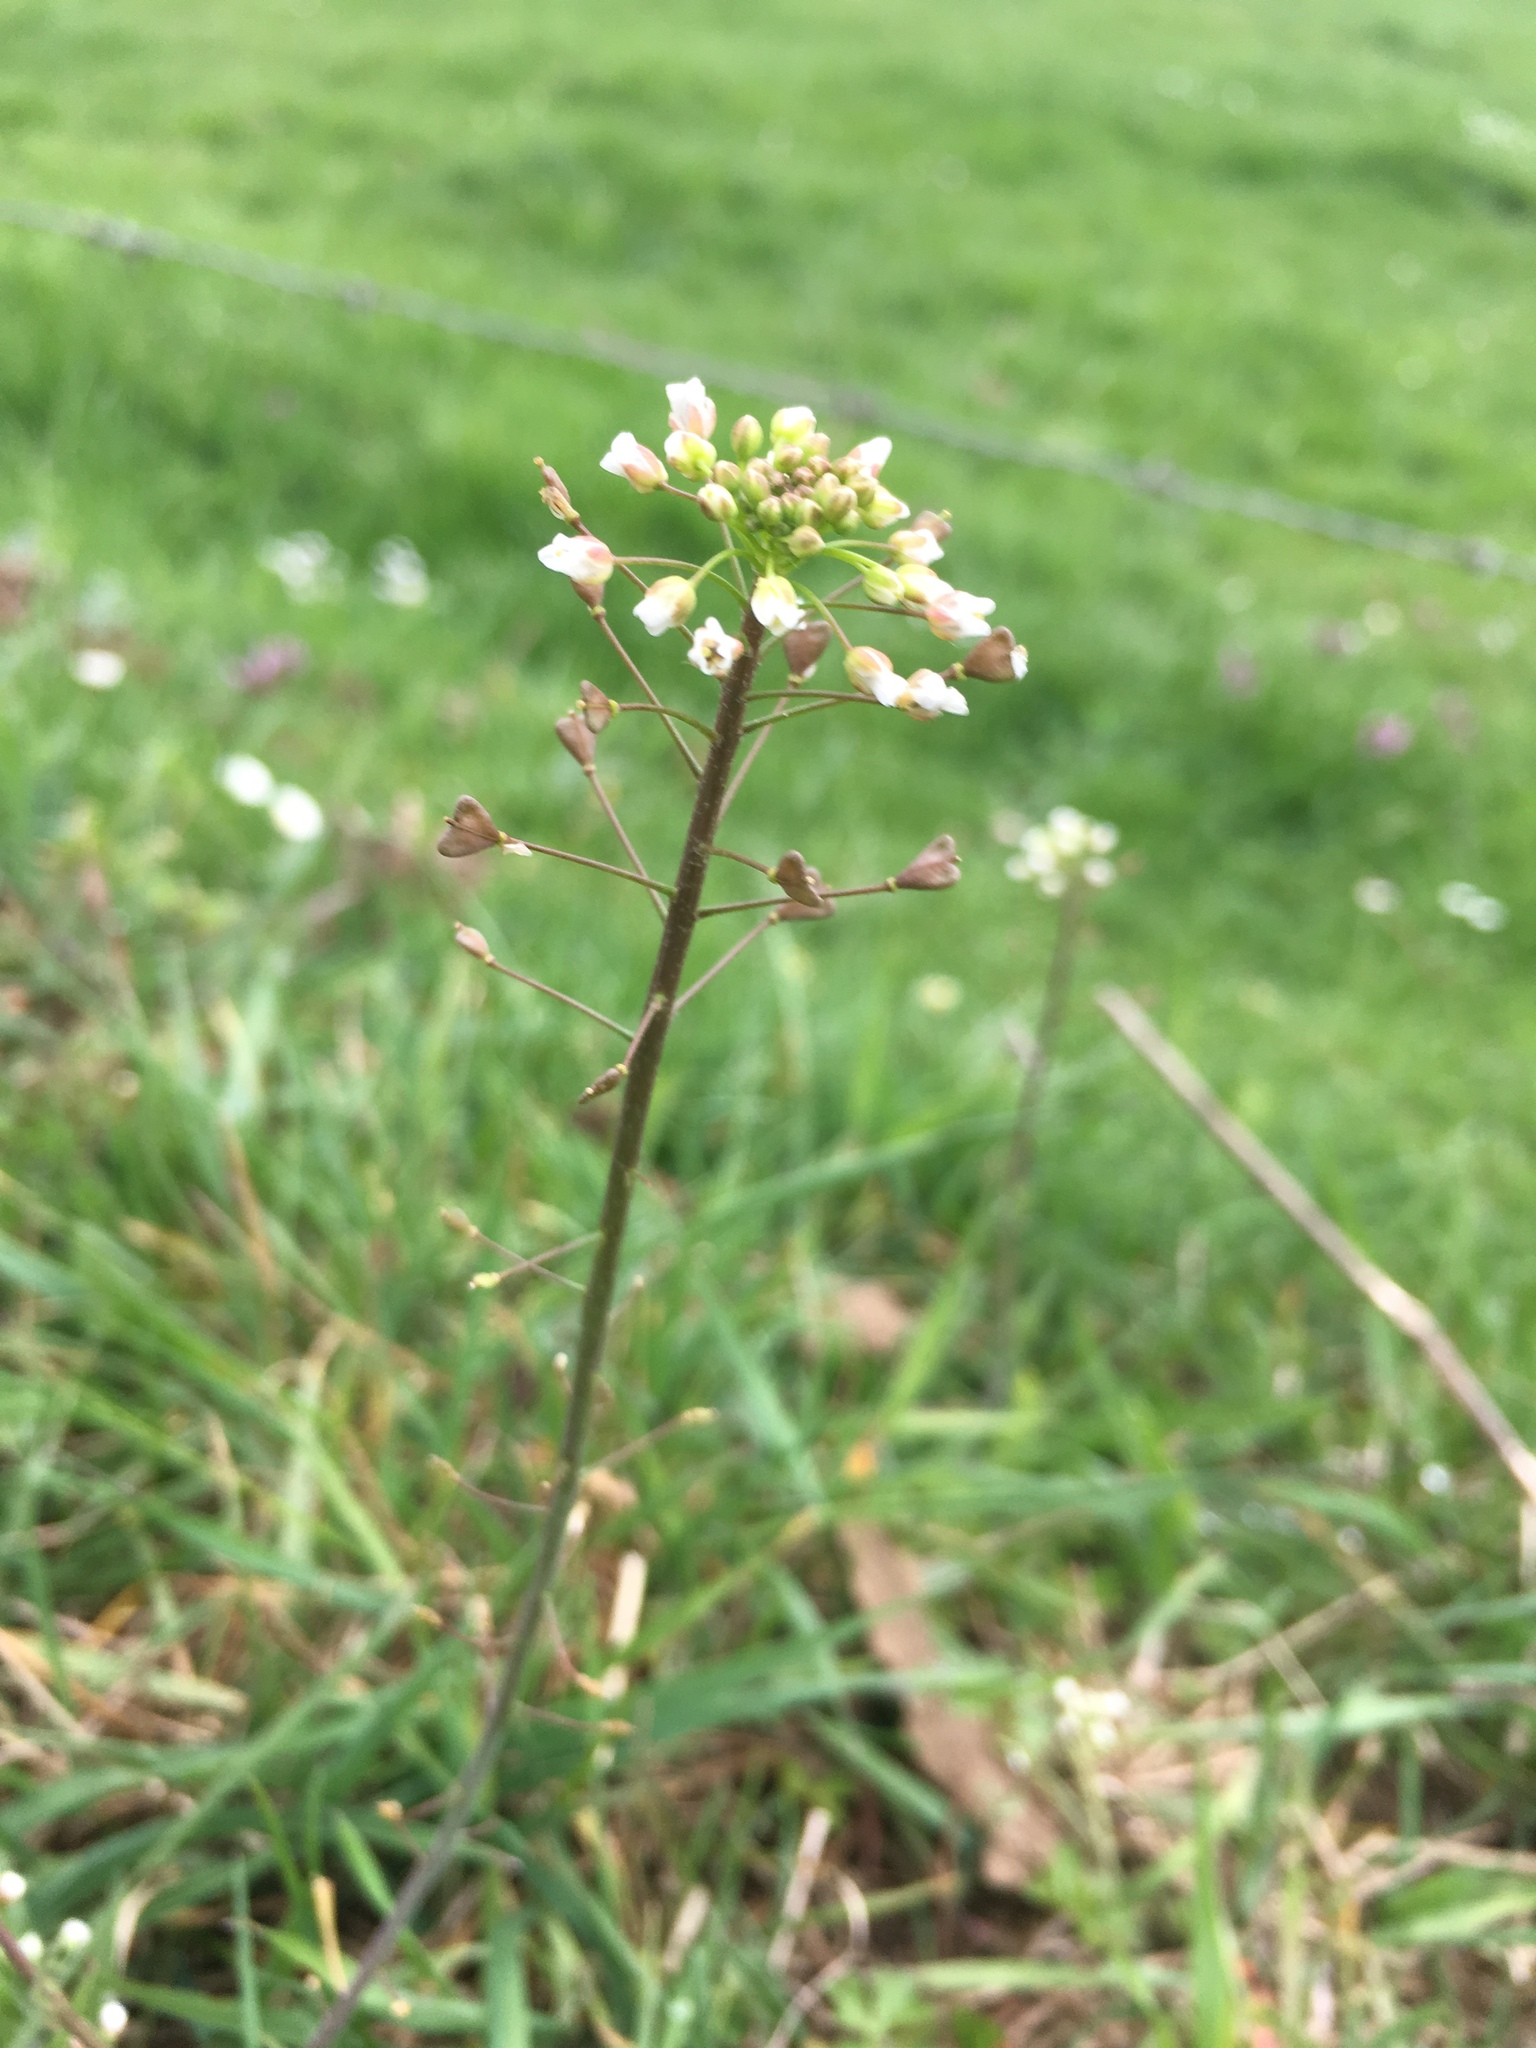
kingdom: Plantae
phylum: Tracheophyta
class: Magnoliopsida
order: Brassicales
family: Brassicaceae
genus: Capsella
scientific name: Capsella bursa-pastoris
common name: Shepherd's purse
